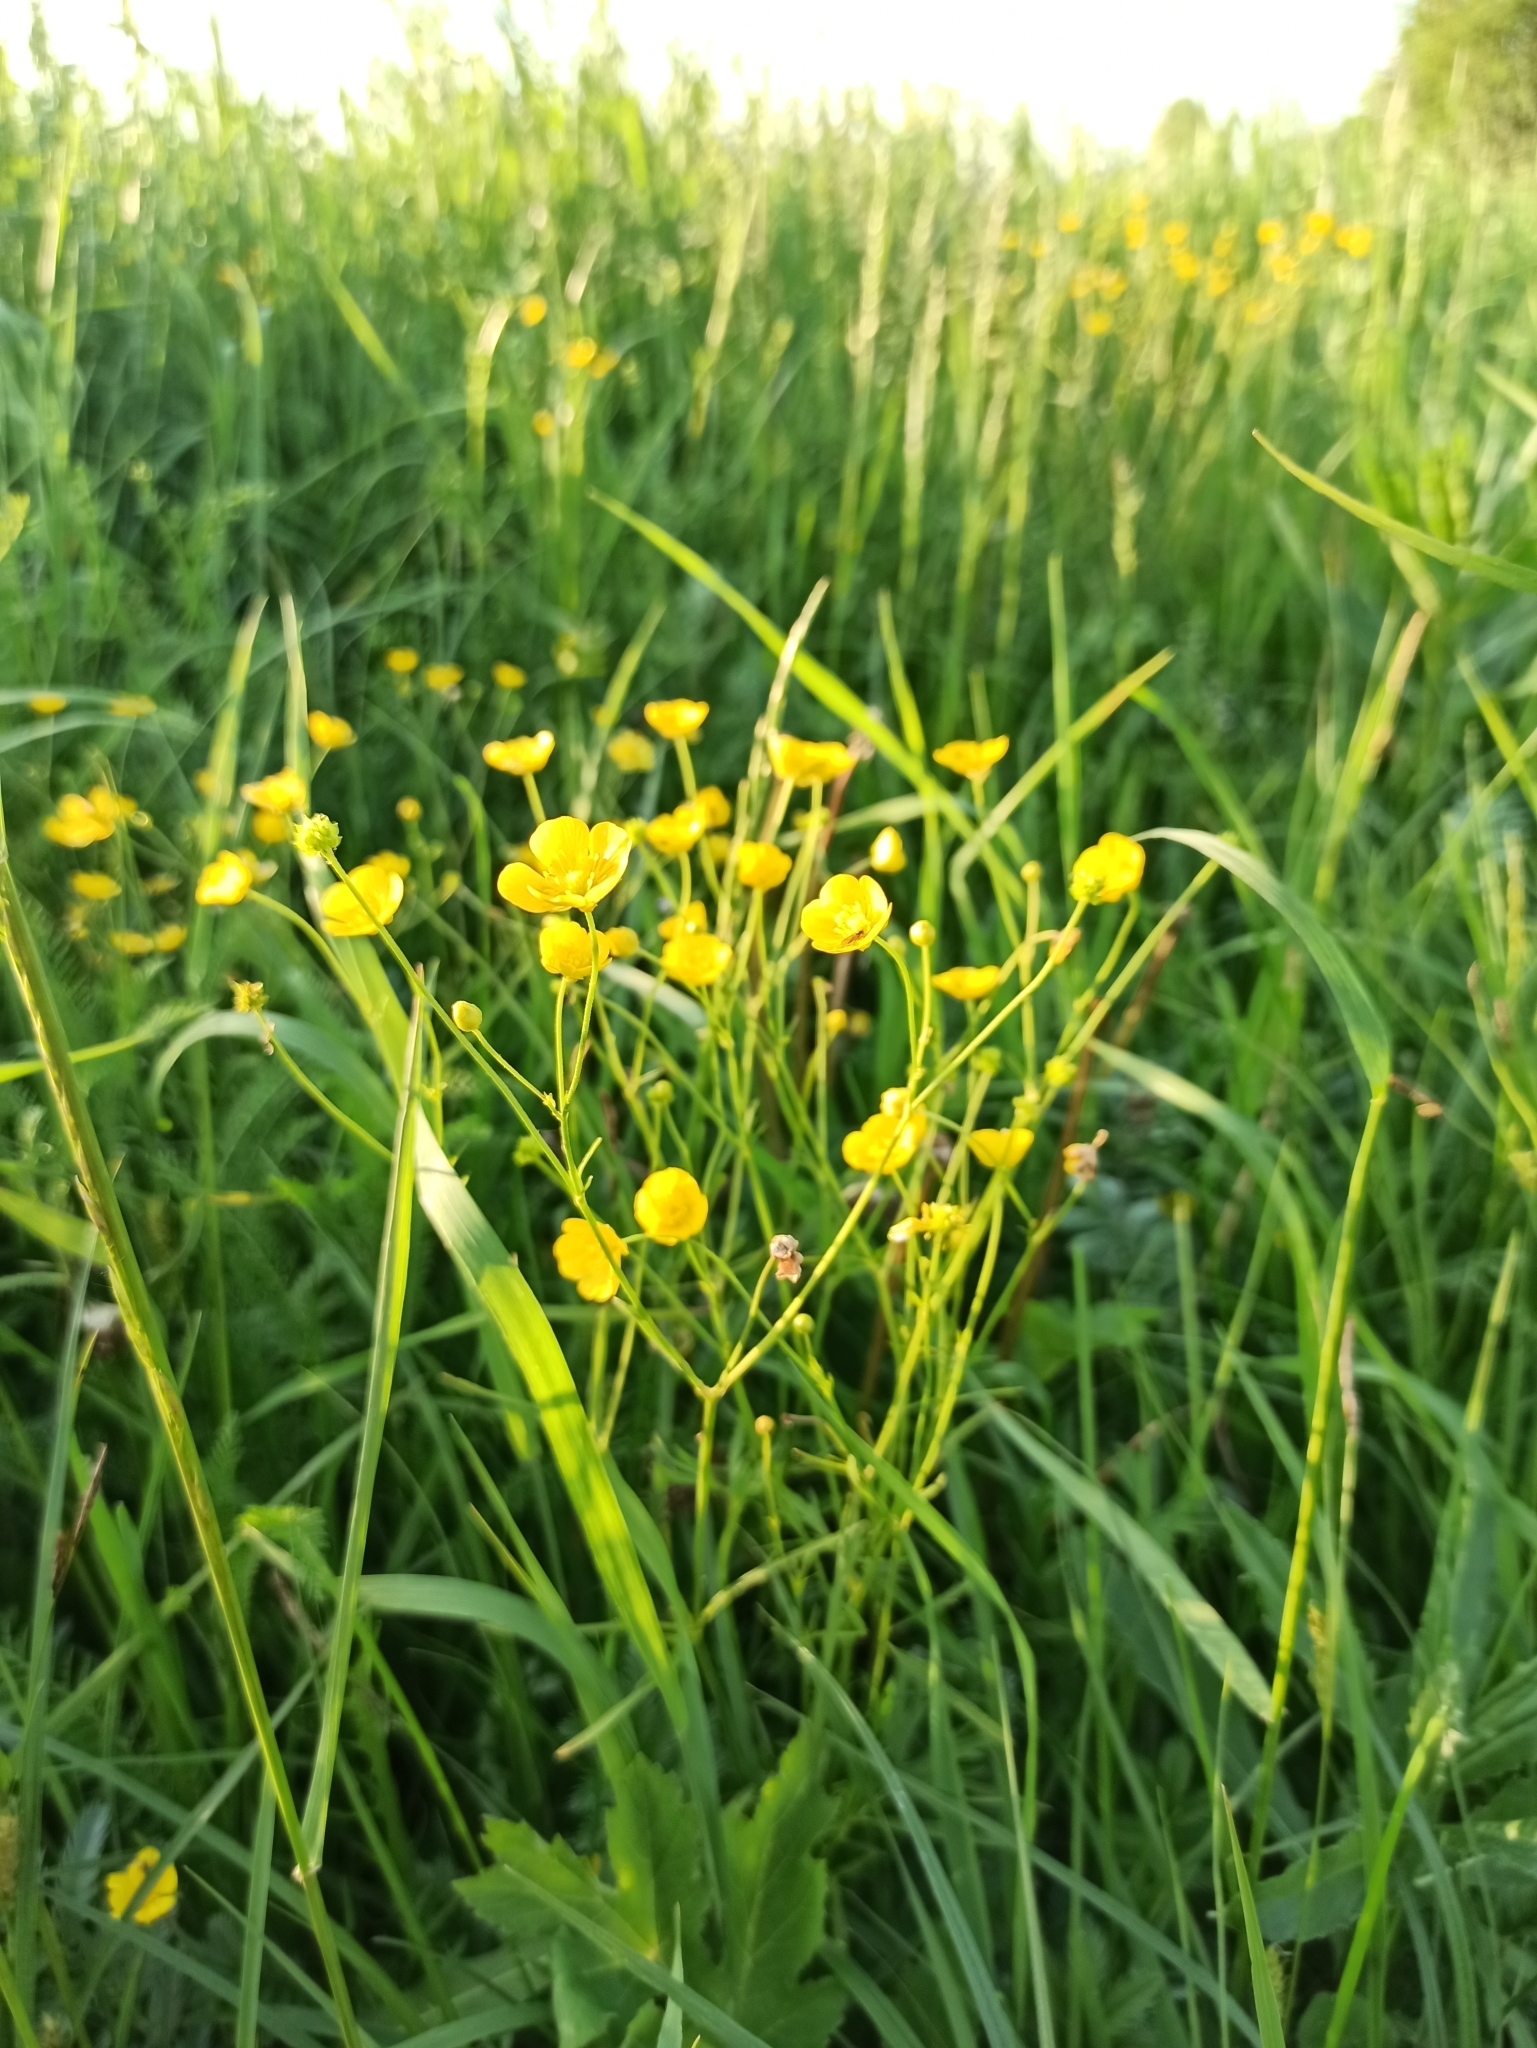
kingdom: Plantae
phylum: Tracheophyta
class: Magnoliopsida
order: Ranunculales
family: Ranunculaceae
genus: Ranunculus
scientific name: Ranunculus acris
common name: Meadow buttercup
